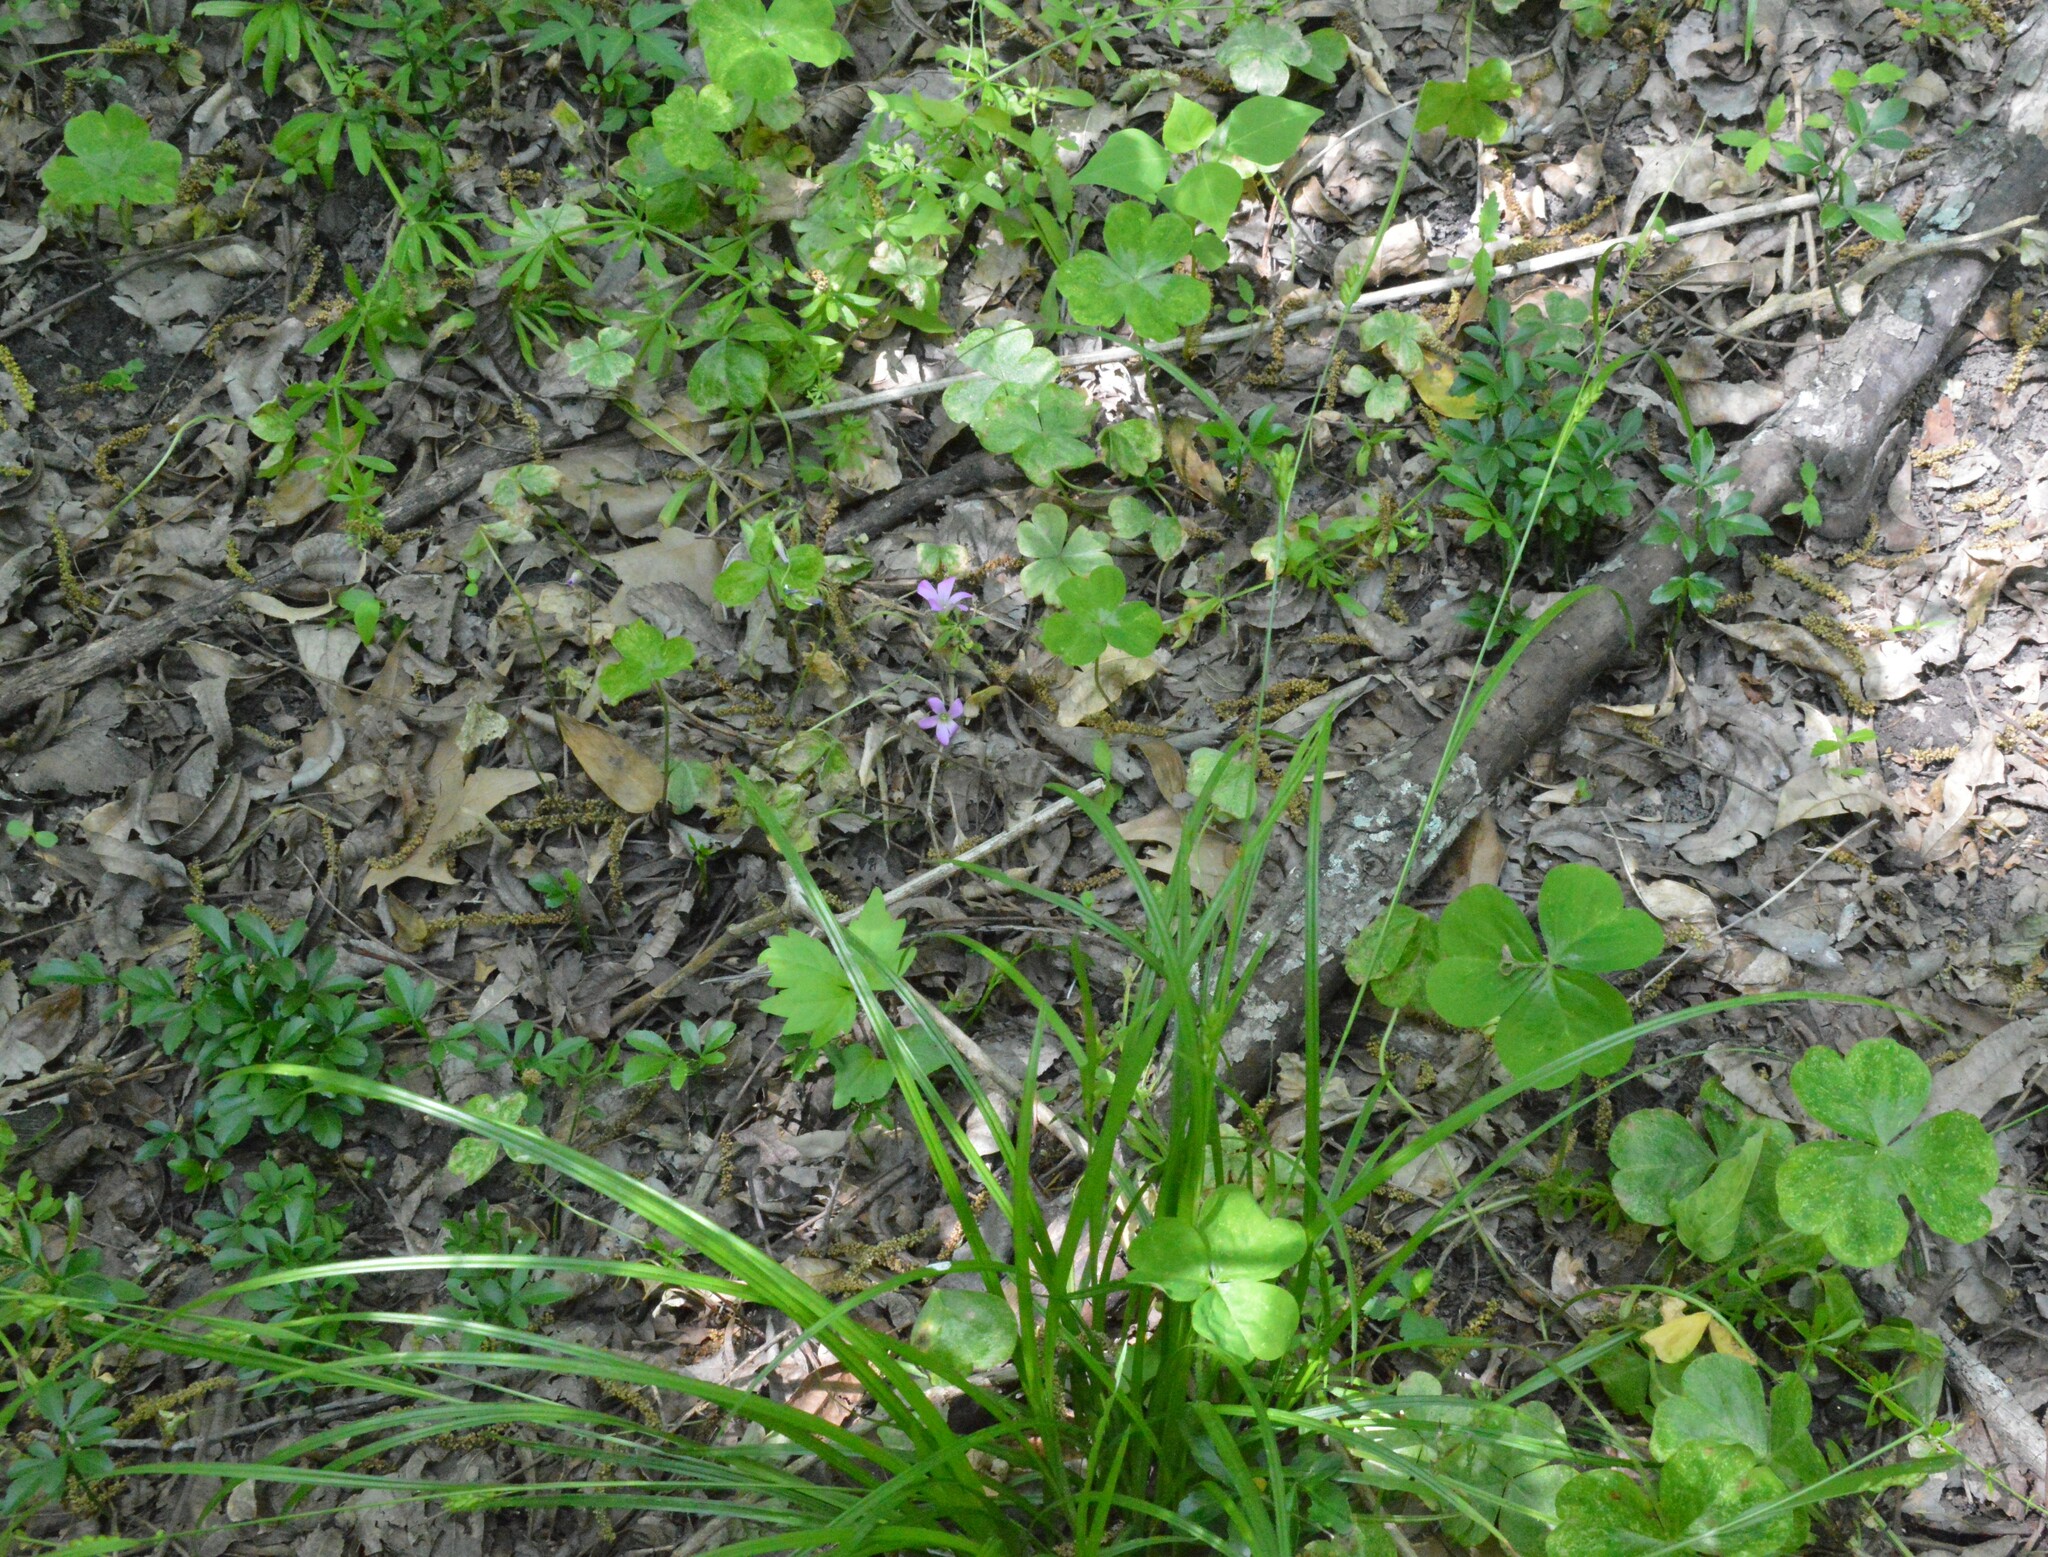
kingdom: Plantae
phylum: Tracheophyta
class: Liliopsida
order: Poales
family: Cyperaceae
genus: Carex
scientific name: Carex corrugata
